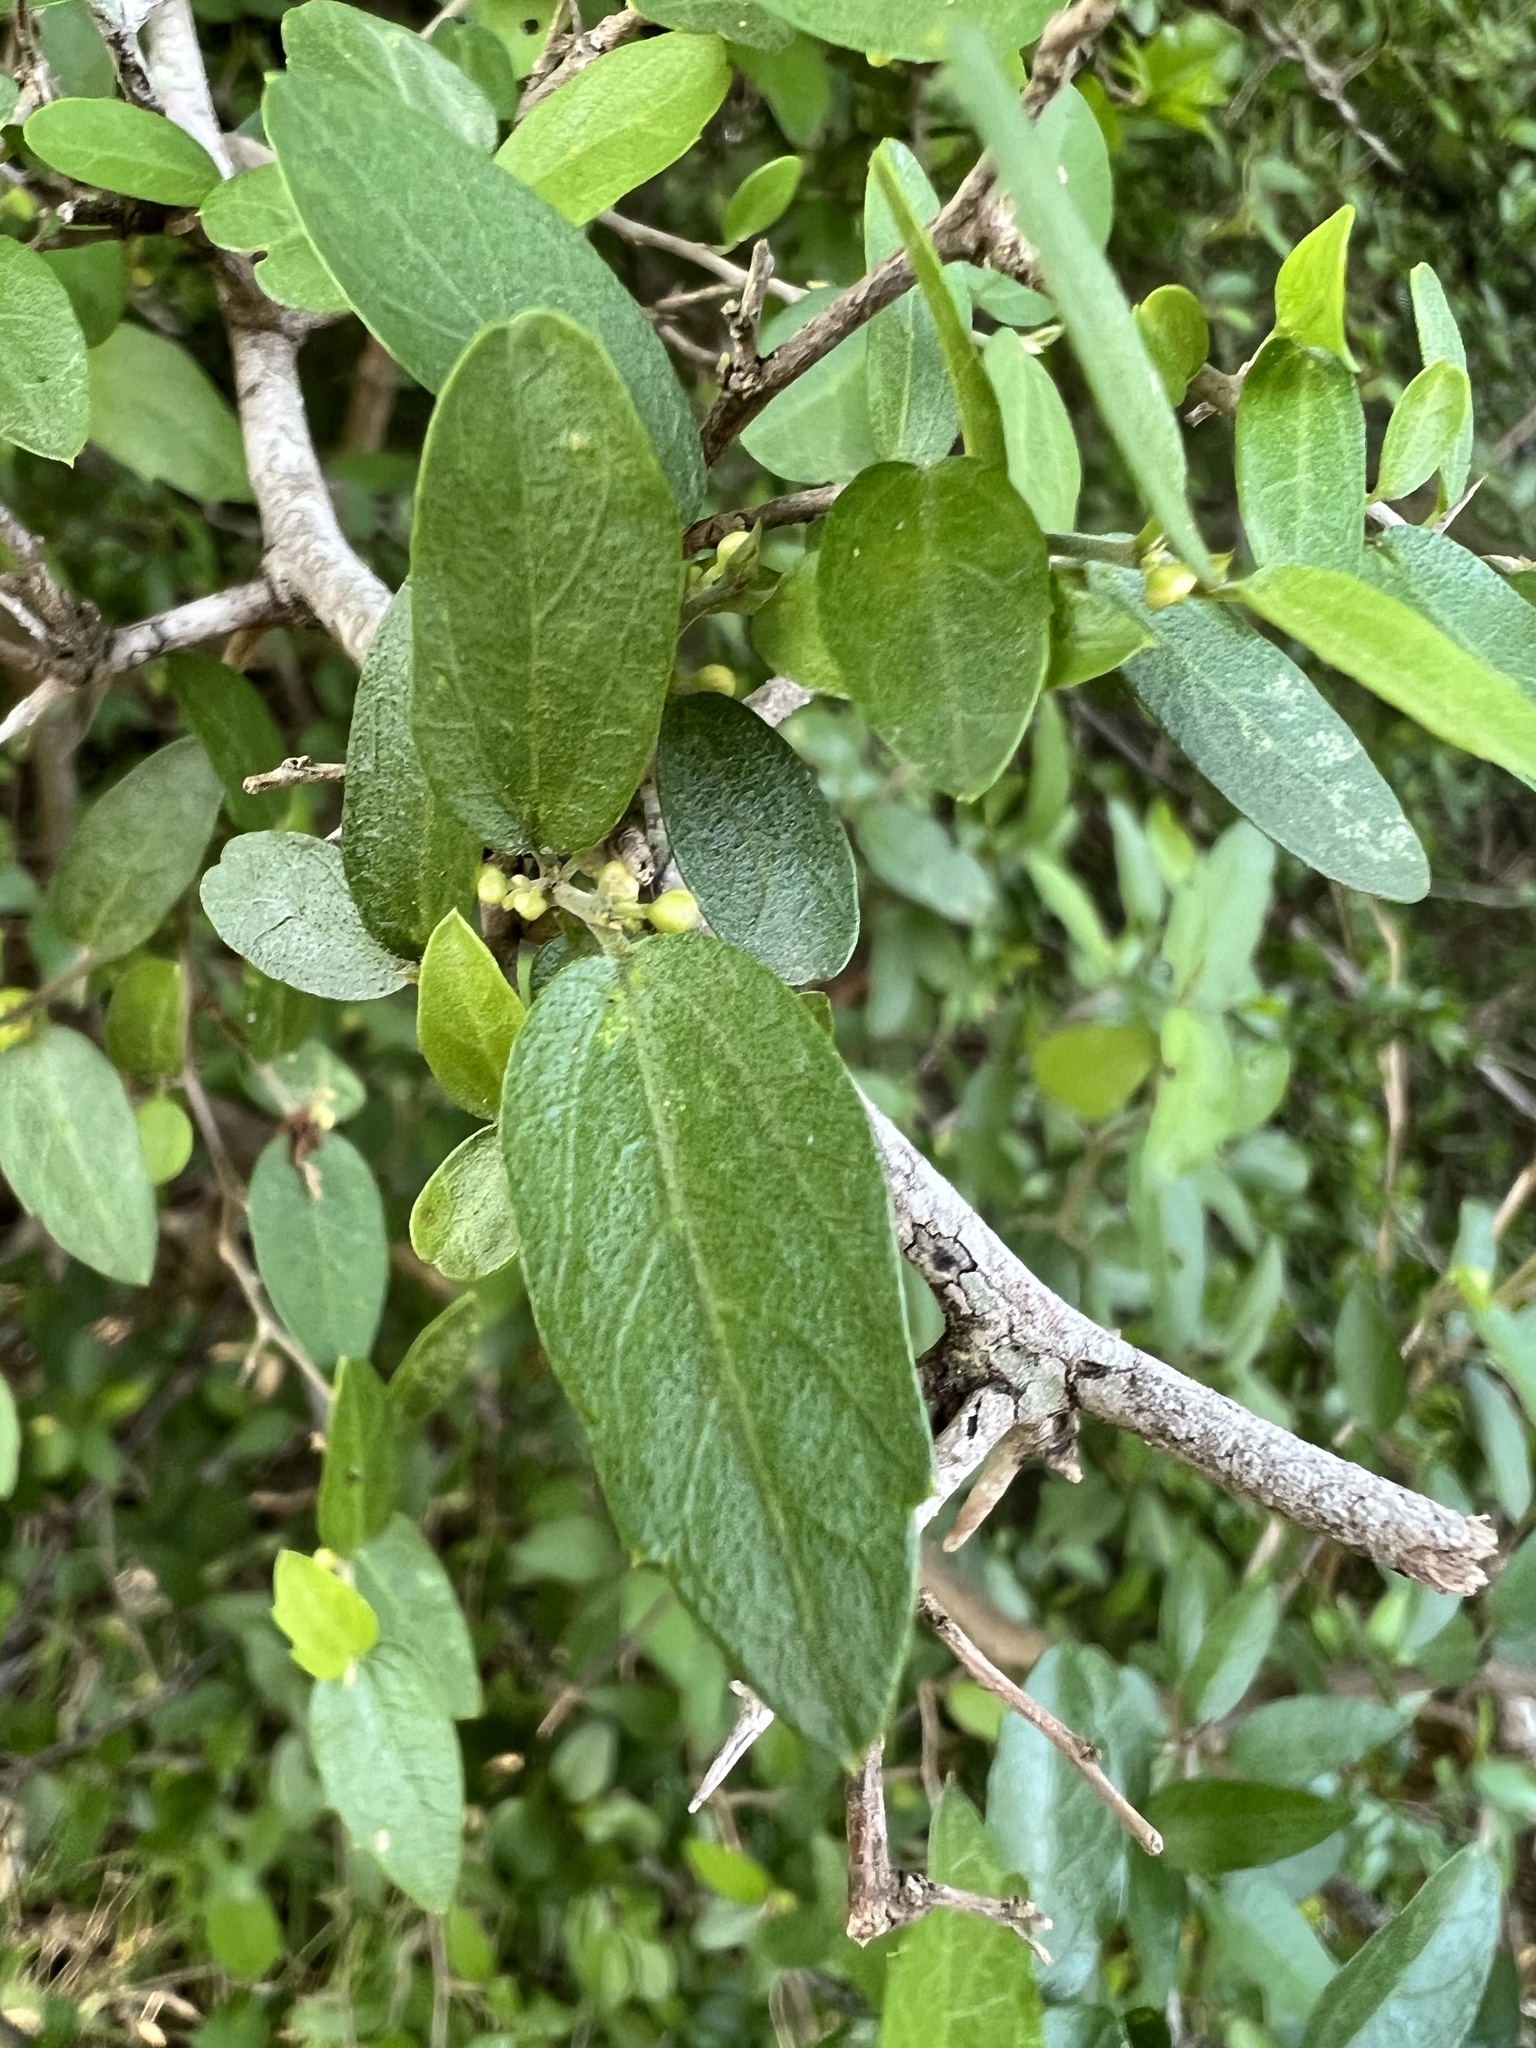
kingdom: Plantae
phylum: Tracheophyta
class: Magnoliopsida
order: Rosales
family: Cannabaceae
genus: Celtis
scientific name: Celtis pallida
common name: Desert hackberry
